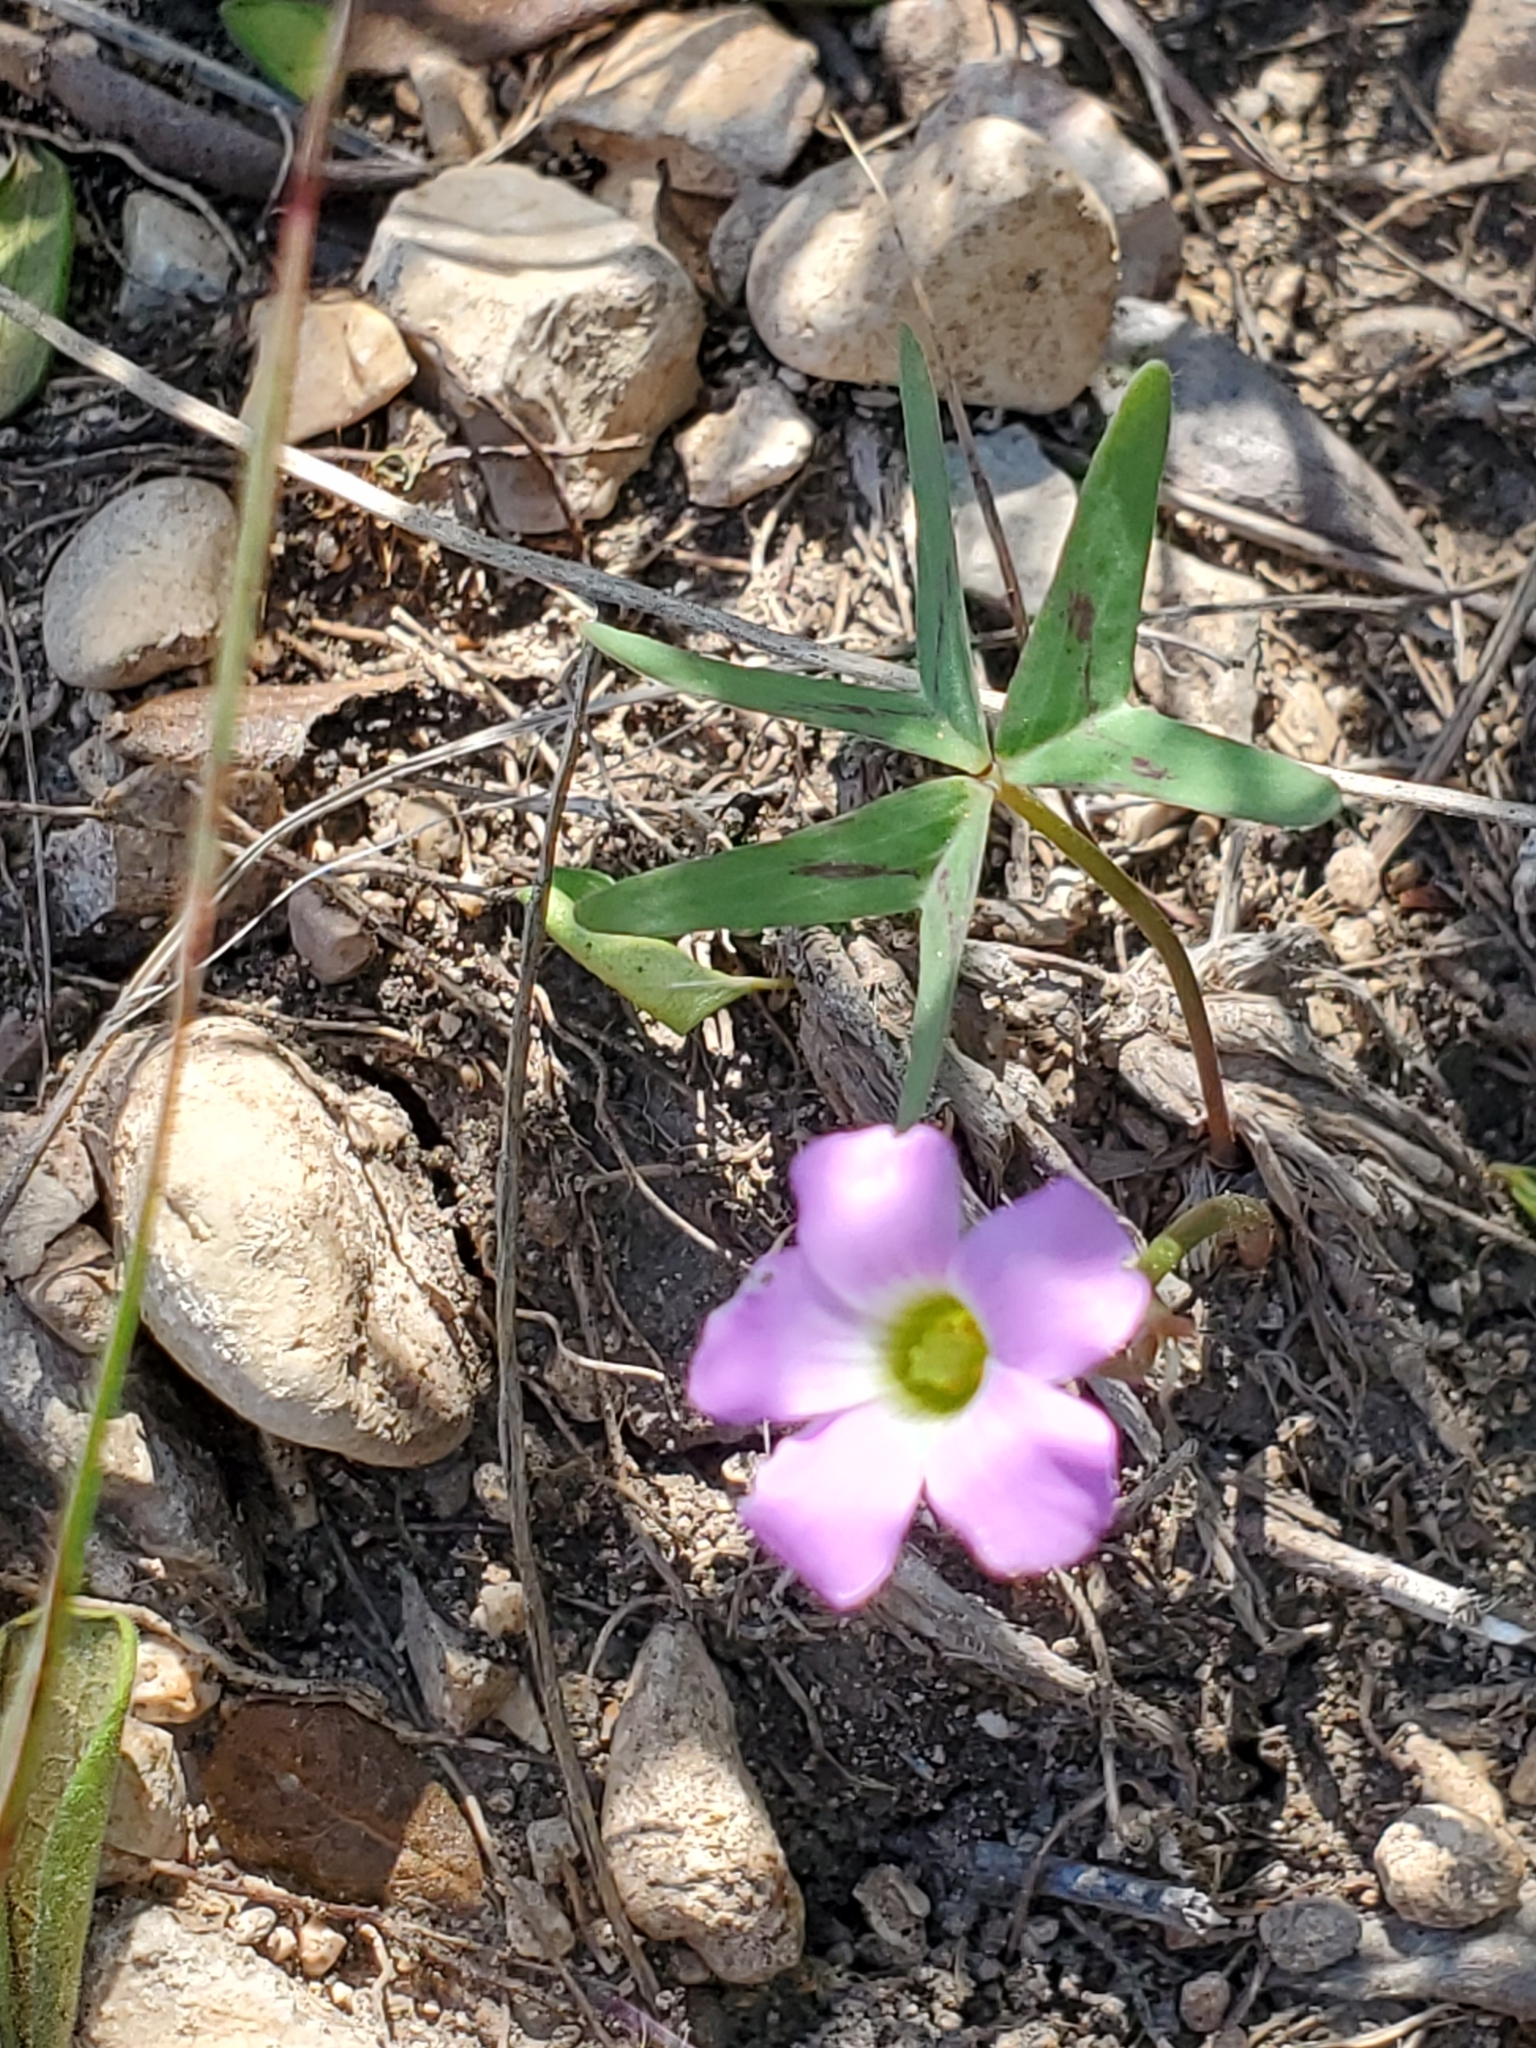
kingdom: Plantae
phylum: Tracheophyta
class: Magnoliopsida
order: Oxalidales
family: Oxalidaceae
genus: Oxalis
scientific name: Oxalis drummondii
